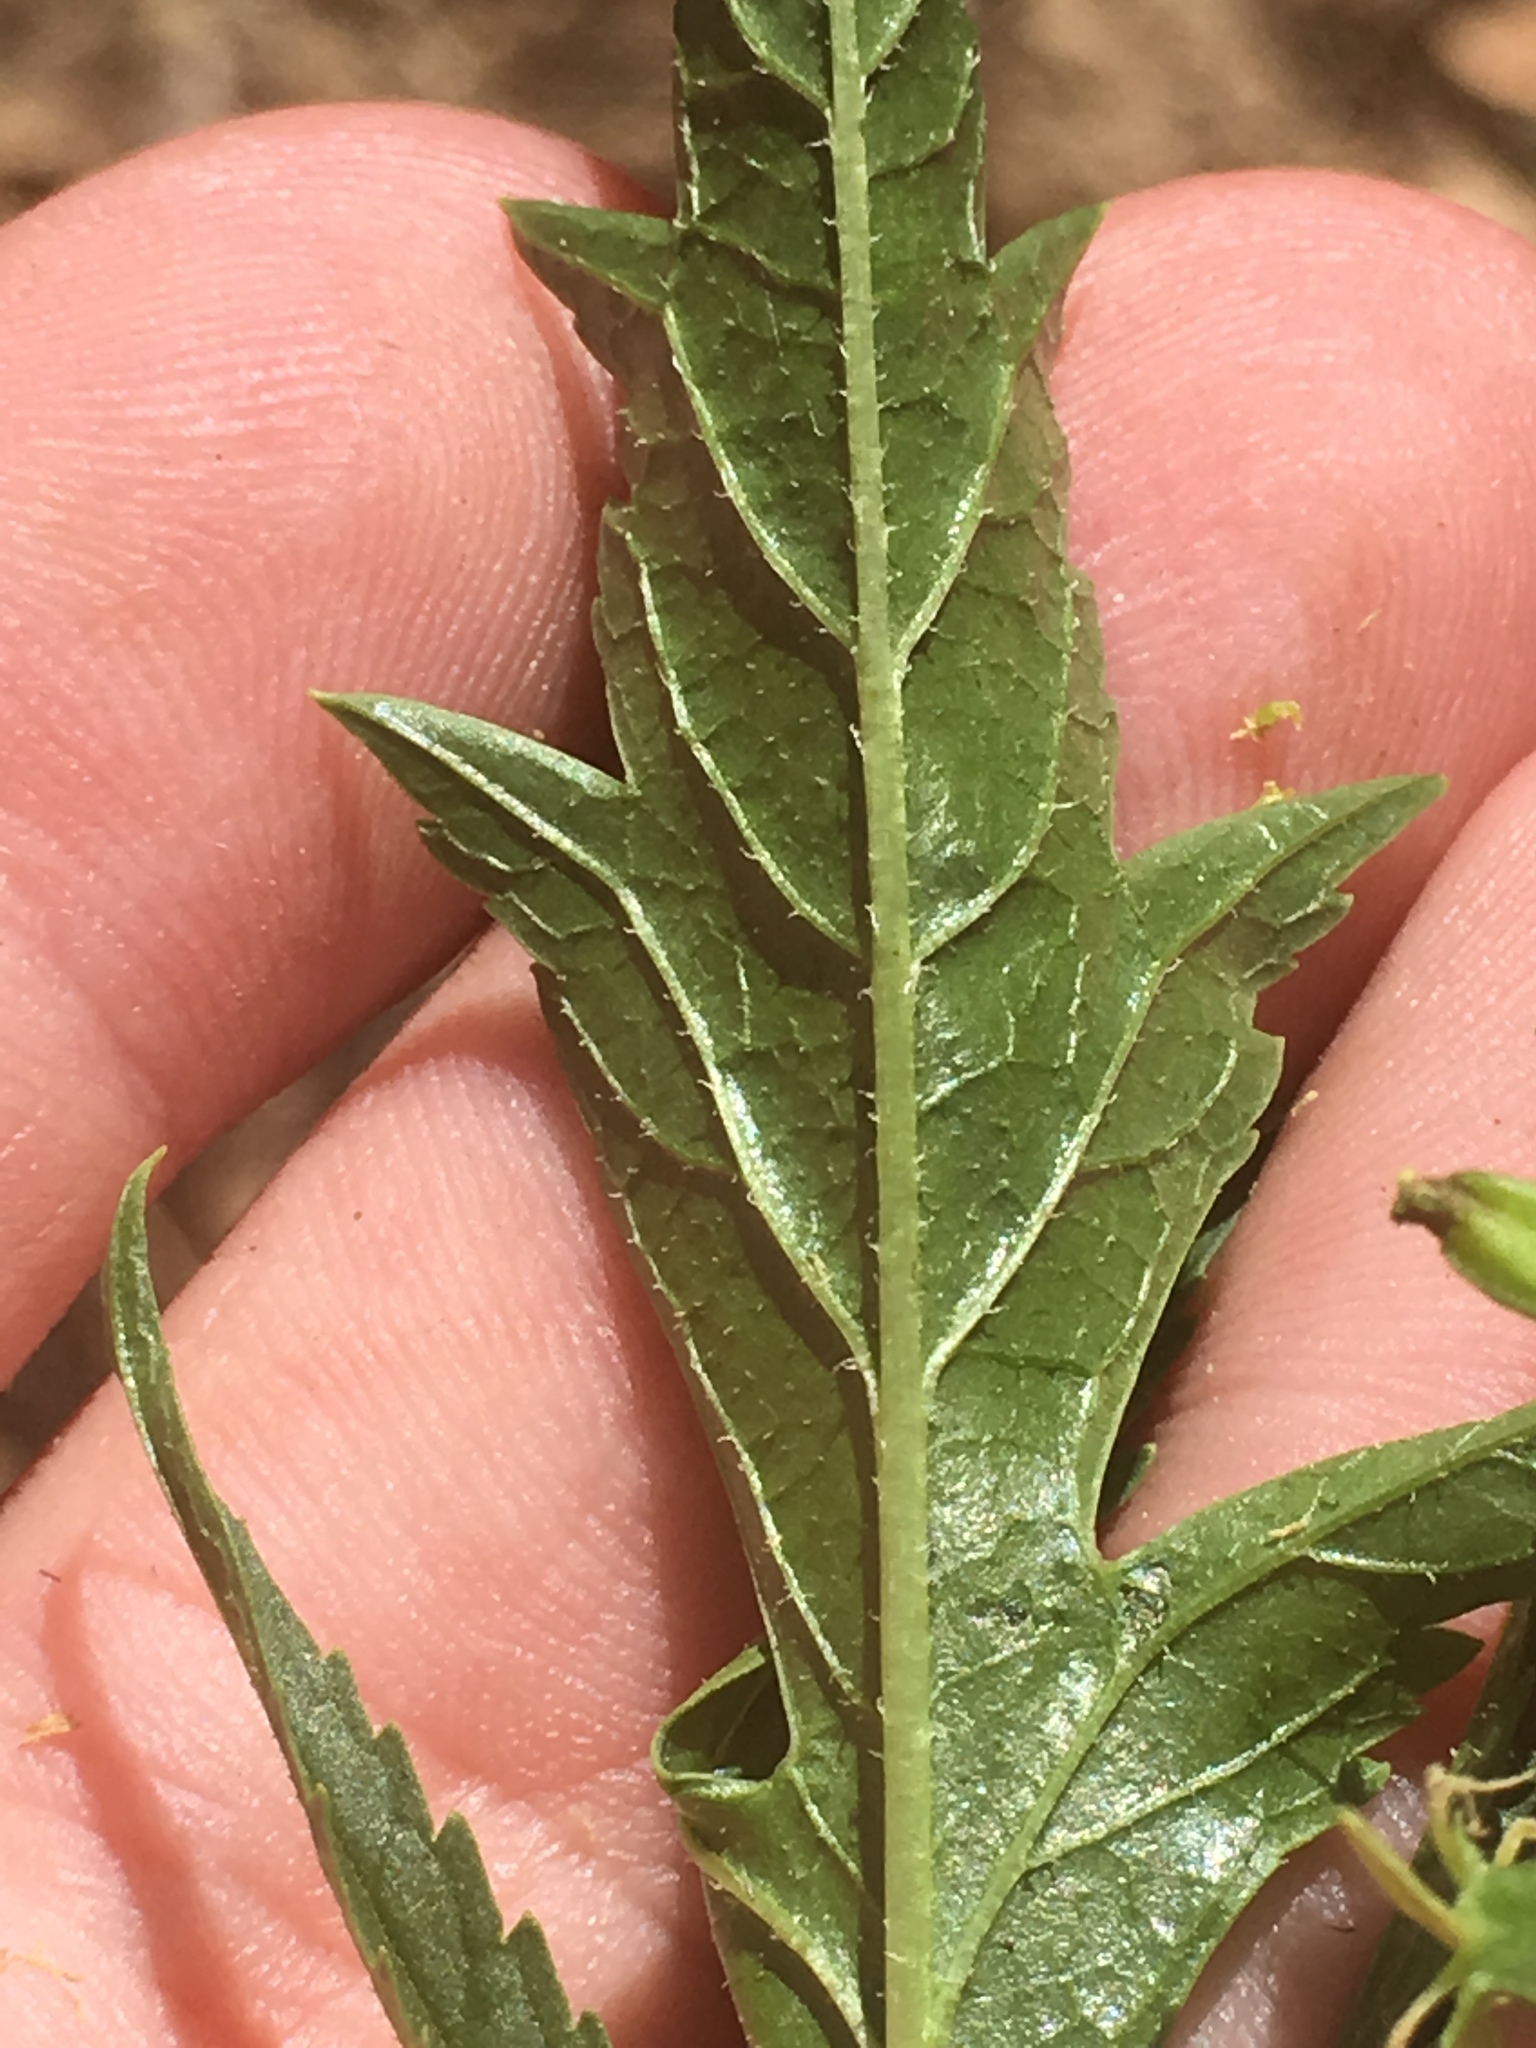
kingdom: Plantae
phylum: Tracheophyta
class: Magnoliopsida
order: Cucurbitales
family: Datiscaceae
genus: Datisca
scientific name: Datisca glomerata
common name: Durango-root
